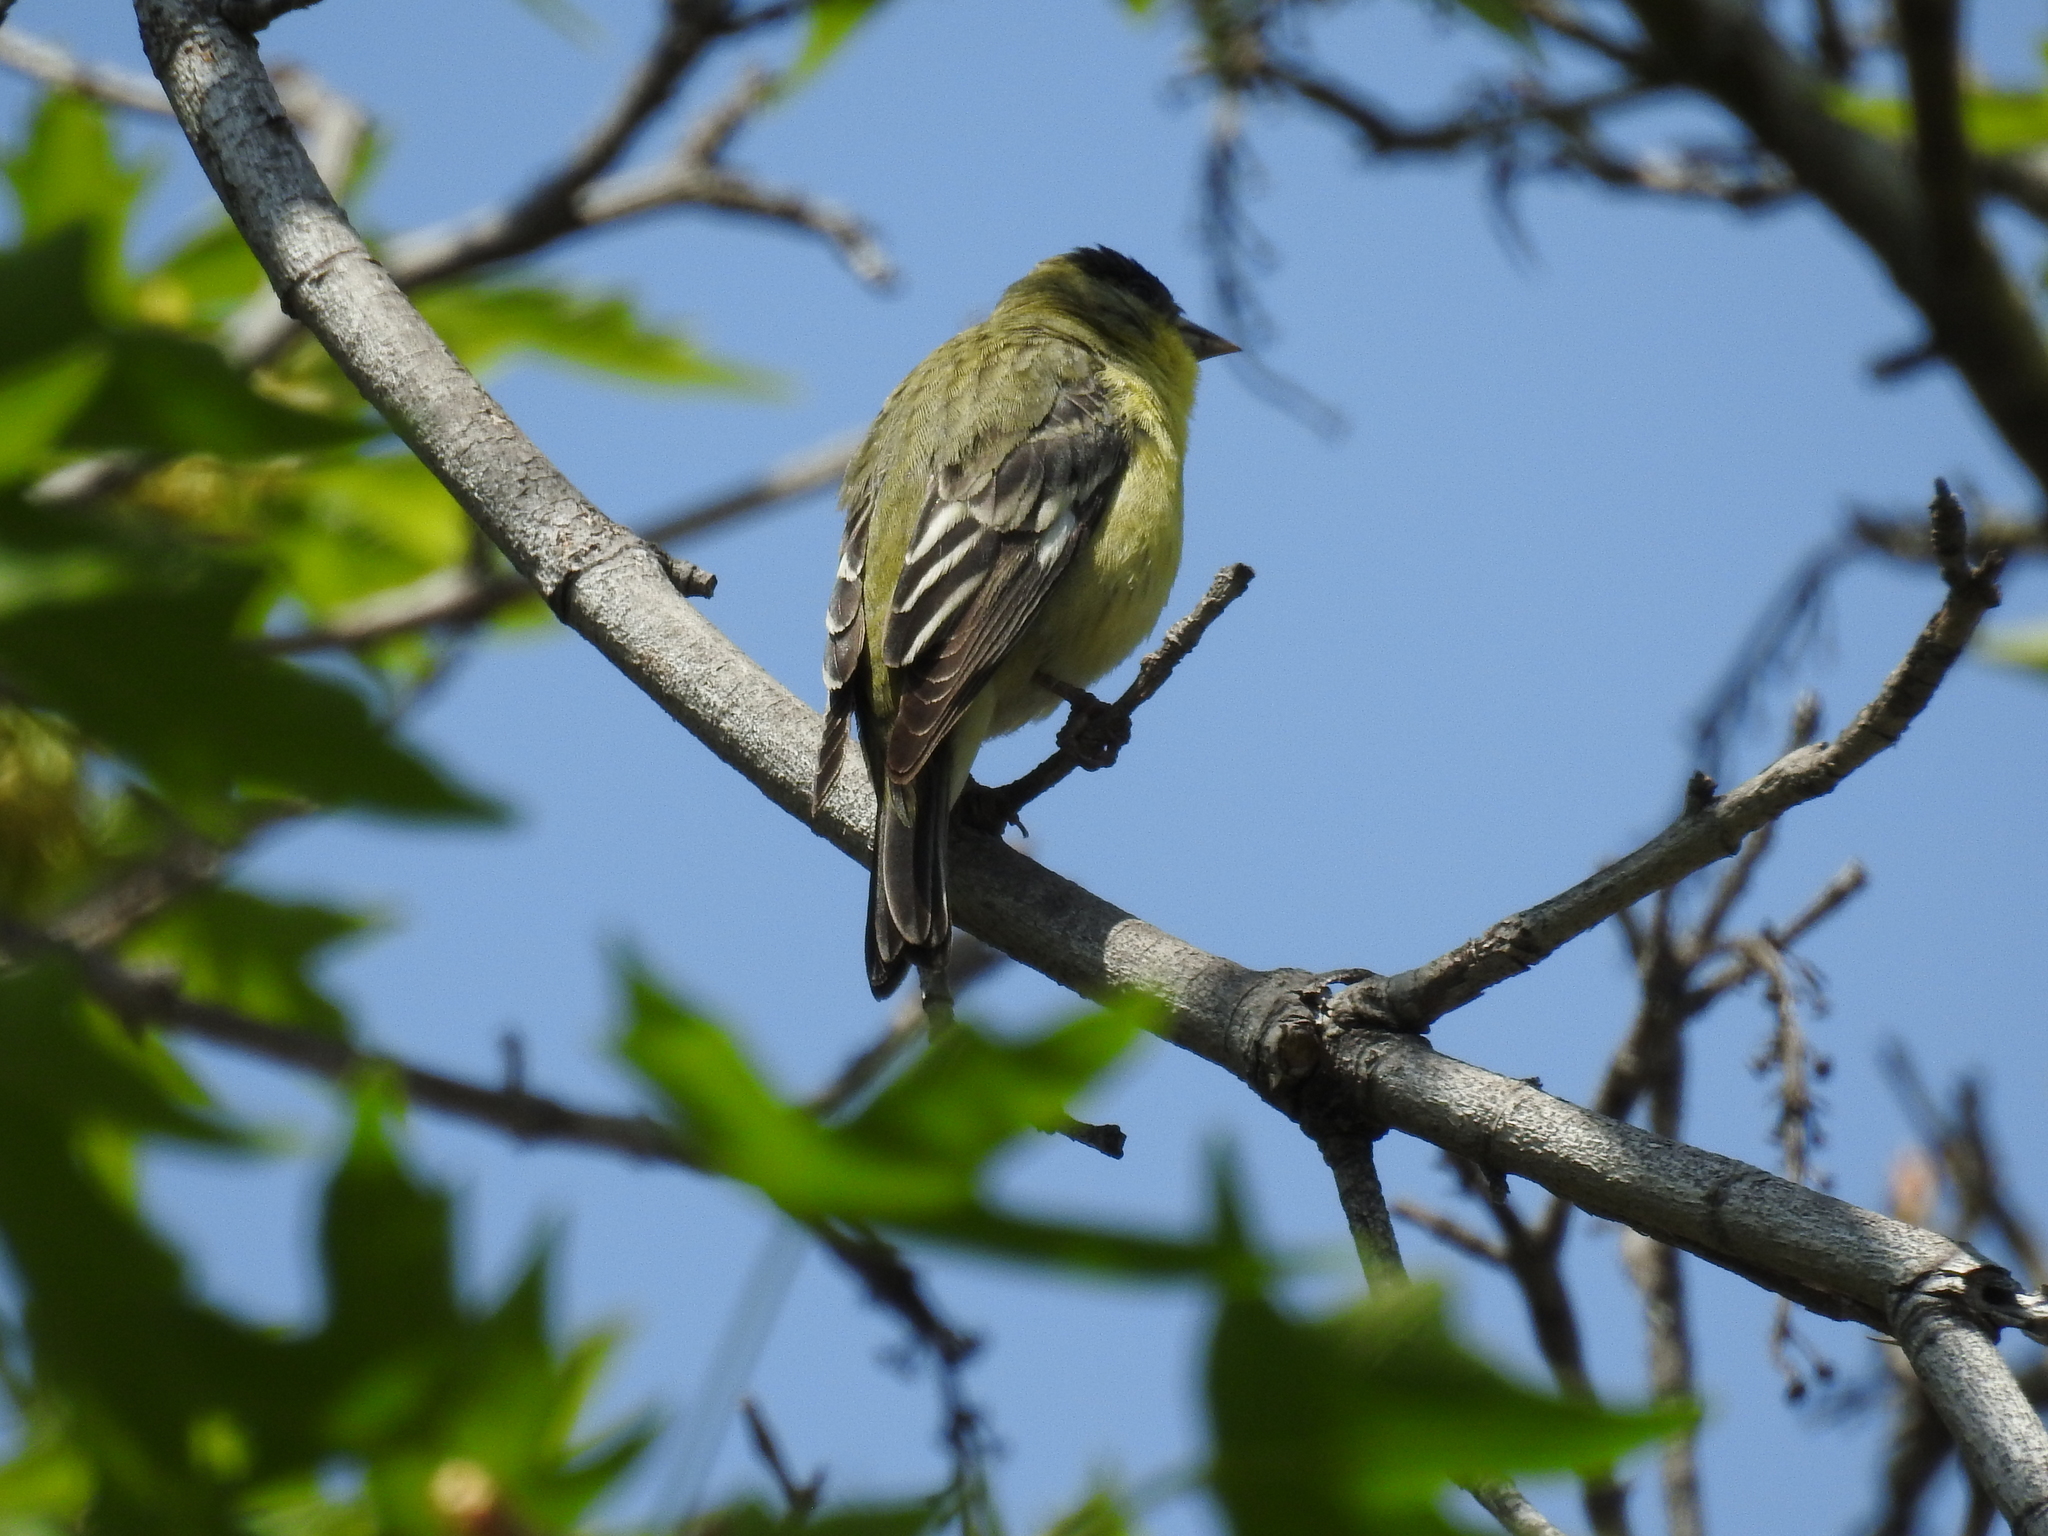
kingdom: Animalia
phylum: Chordata
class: Aves
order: Passeriformes
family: Fringillidae
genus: Spinus
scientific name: Spinus psaltria
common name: Lesser goldfinch
